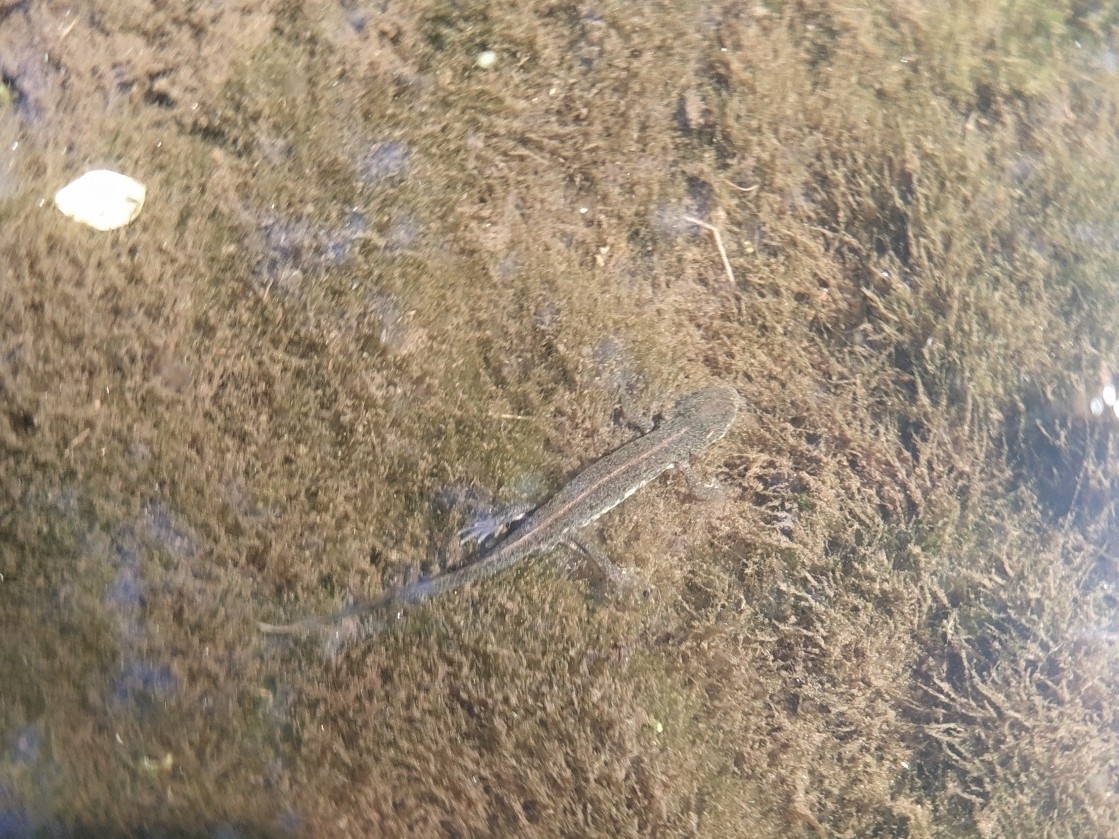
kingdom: Animalia
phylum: Chordata
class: Amphibia
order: Caudata
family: Salamandridae
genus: Lissotriton
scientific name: Lissotriton boscai
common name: Bosca's newt
